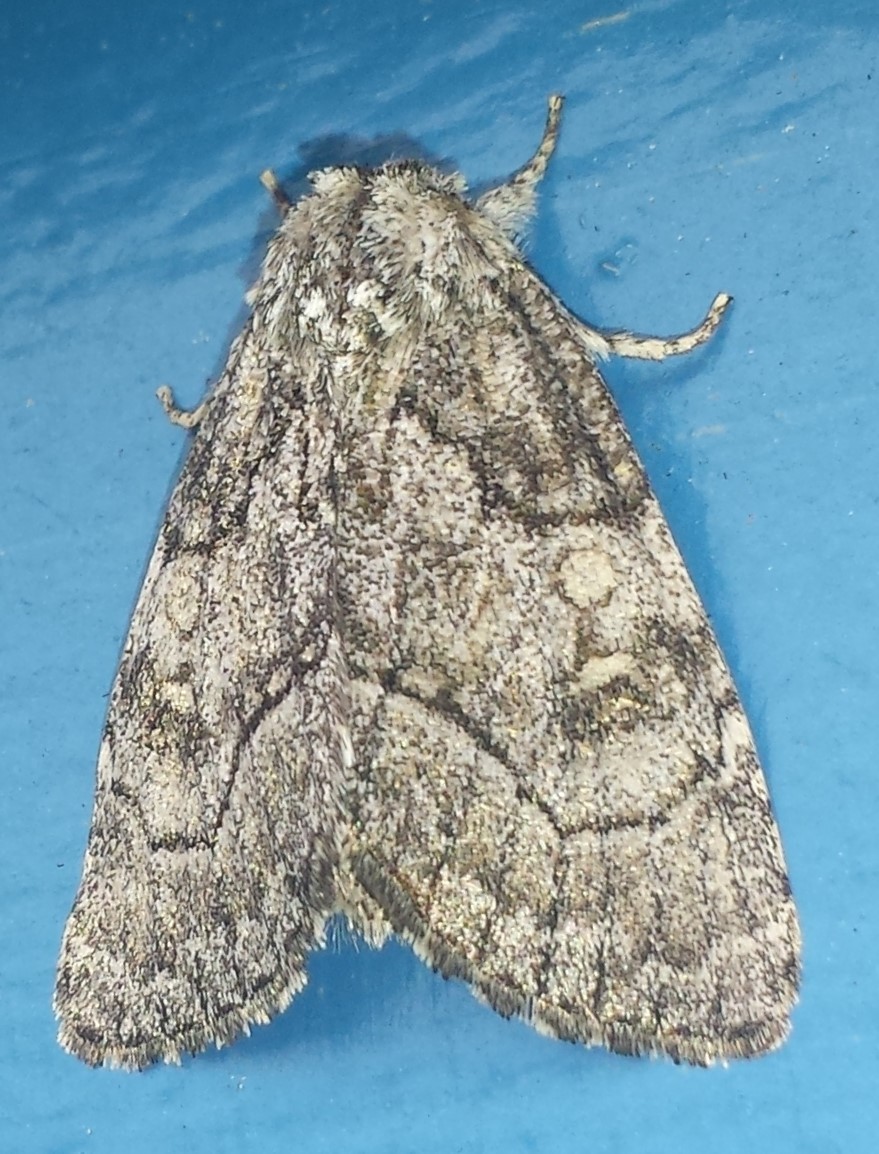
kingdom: Animalia
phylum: Arthropoda
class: Insecta
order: Lepidoptera
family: Noctuidae
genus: Raphia
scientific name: Raphia frater
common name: Brother
